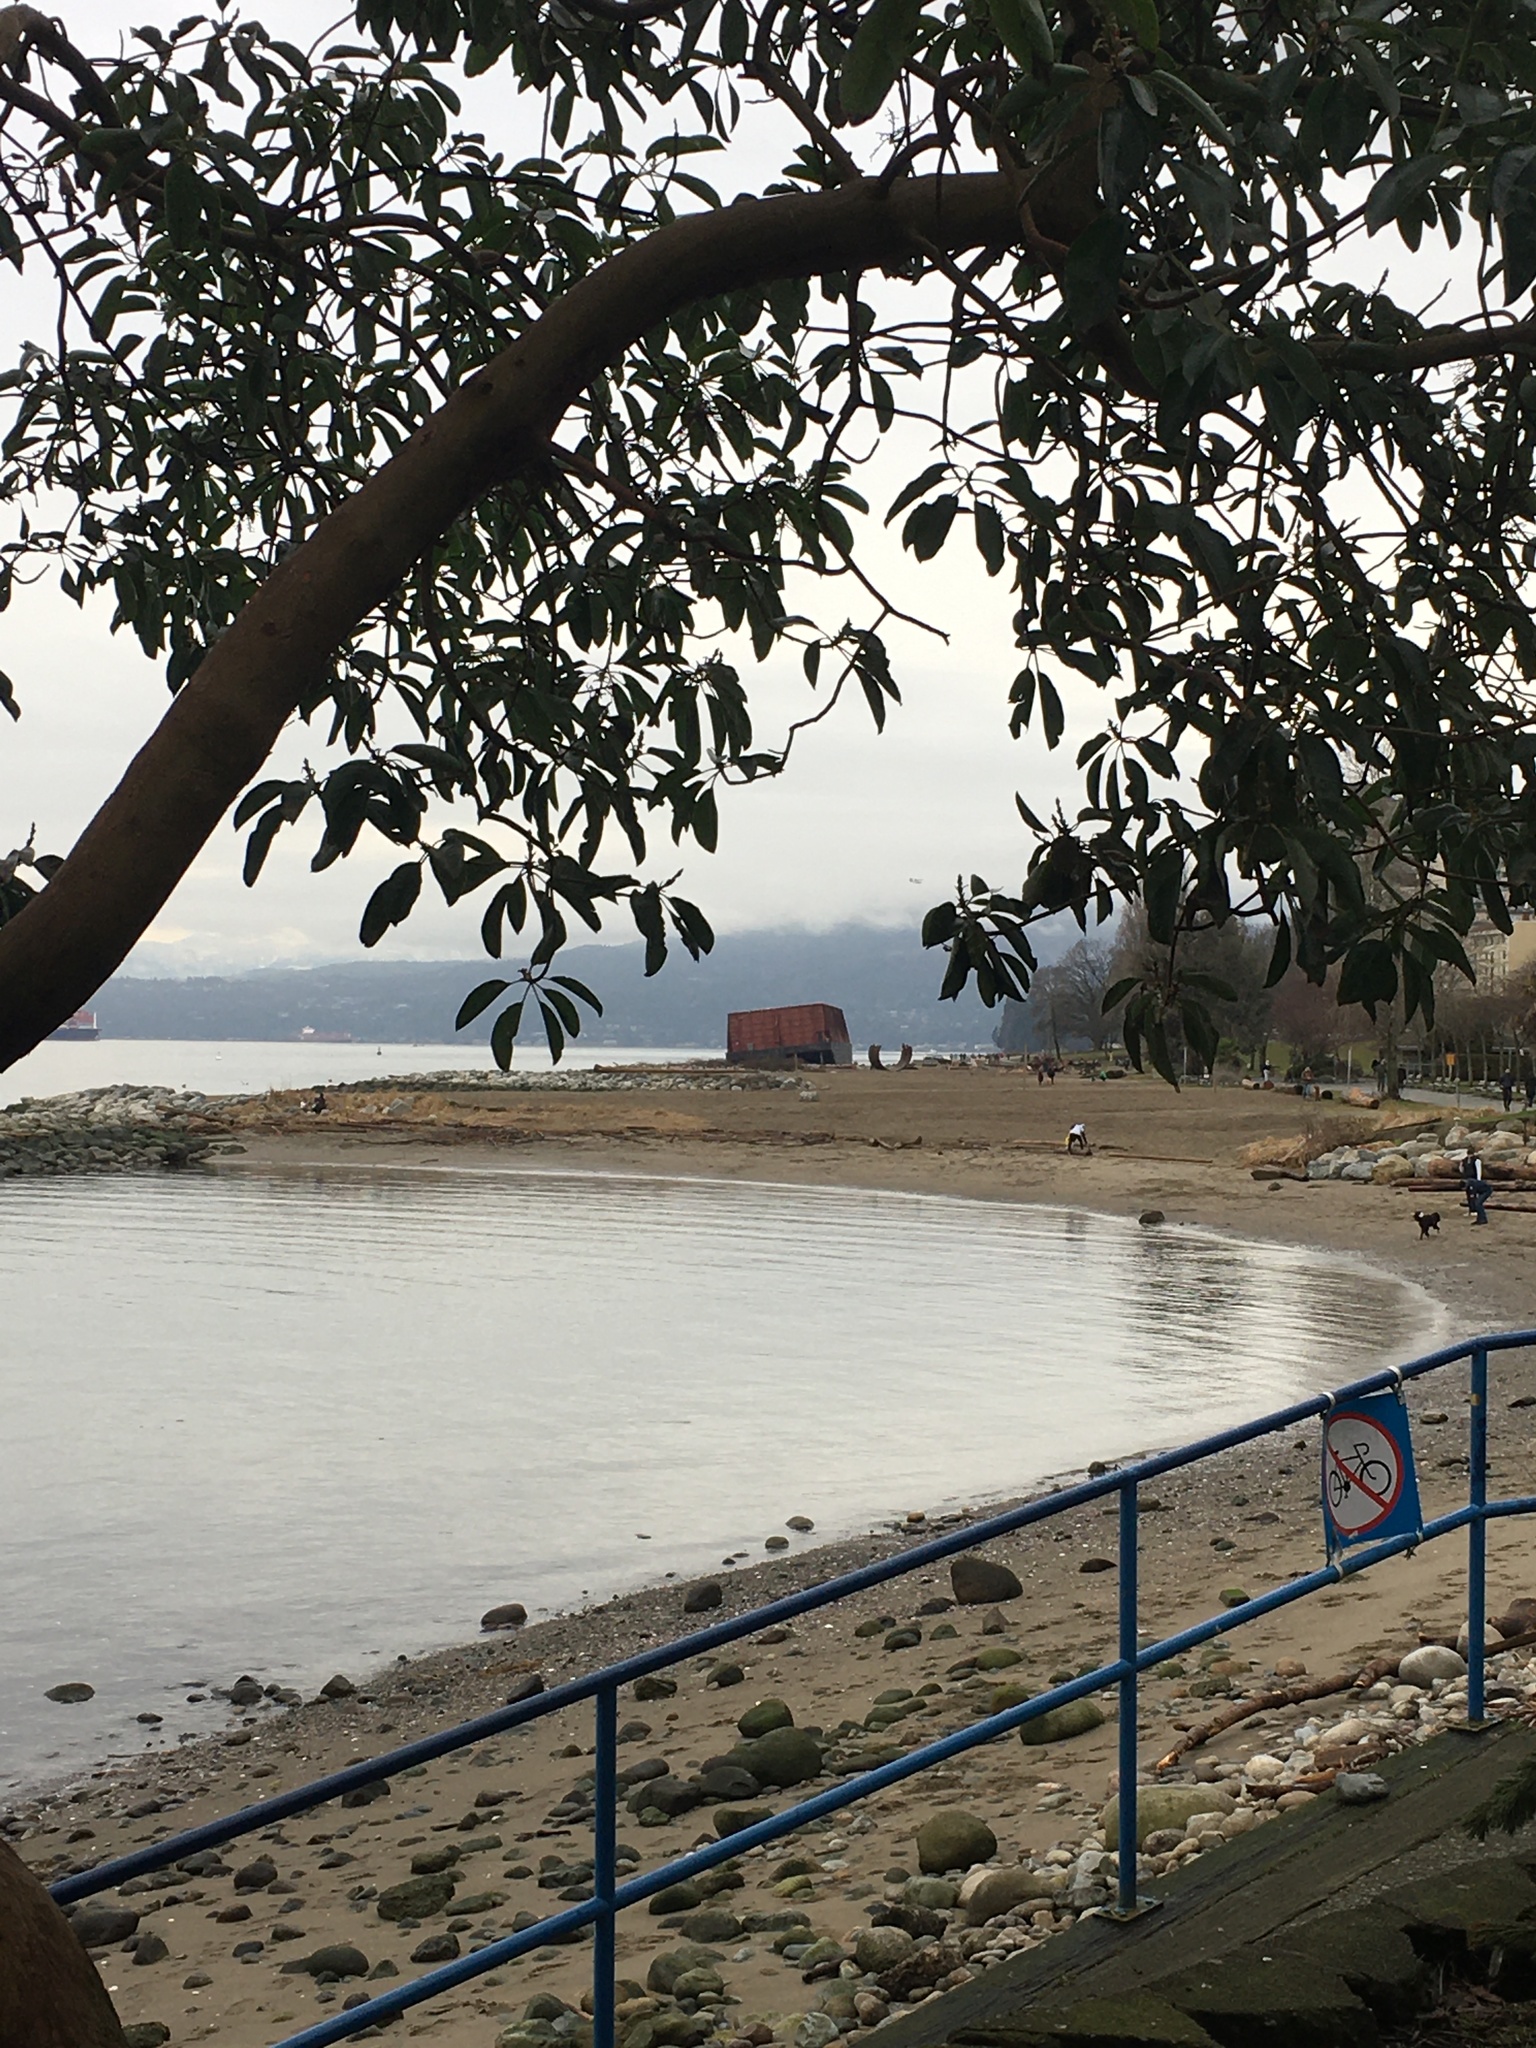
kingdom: Plantae
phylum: Tracheophyta
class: Magnoliopsida
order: Ericales
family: Ericaceae
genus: Arbutus
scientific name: Arbutus menziesii
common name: Pacific madrone
